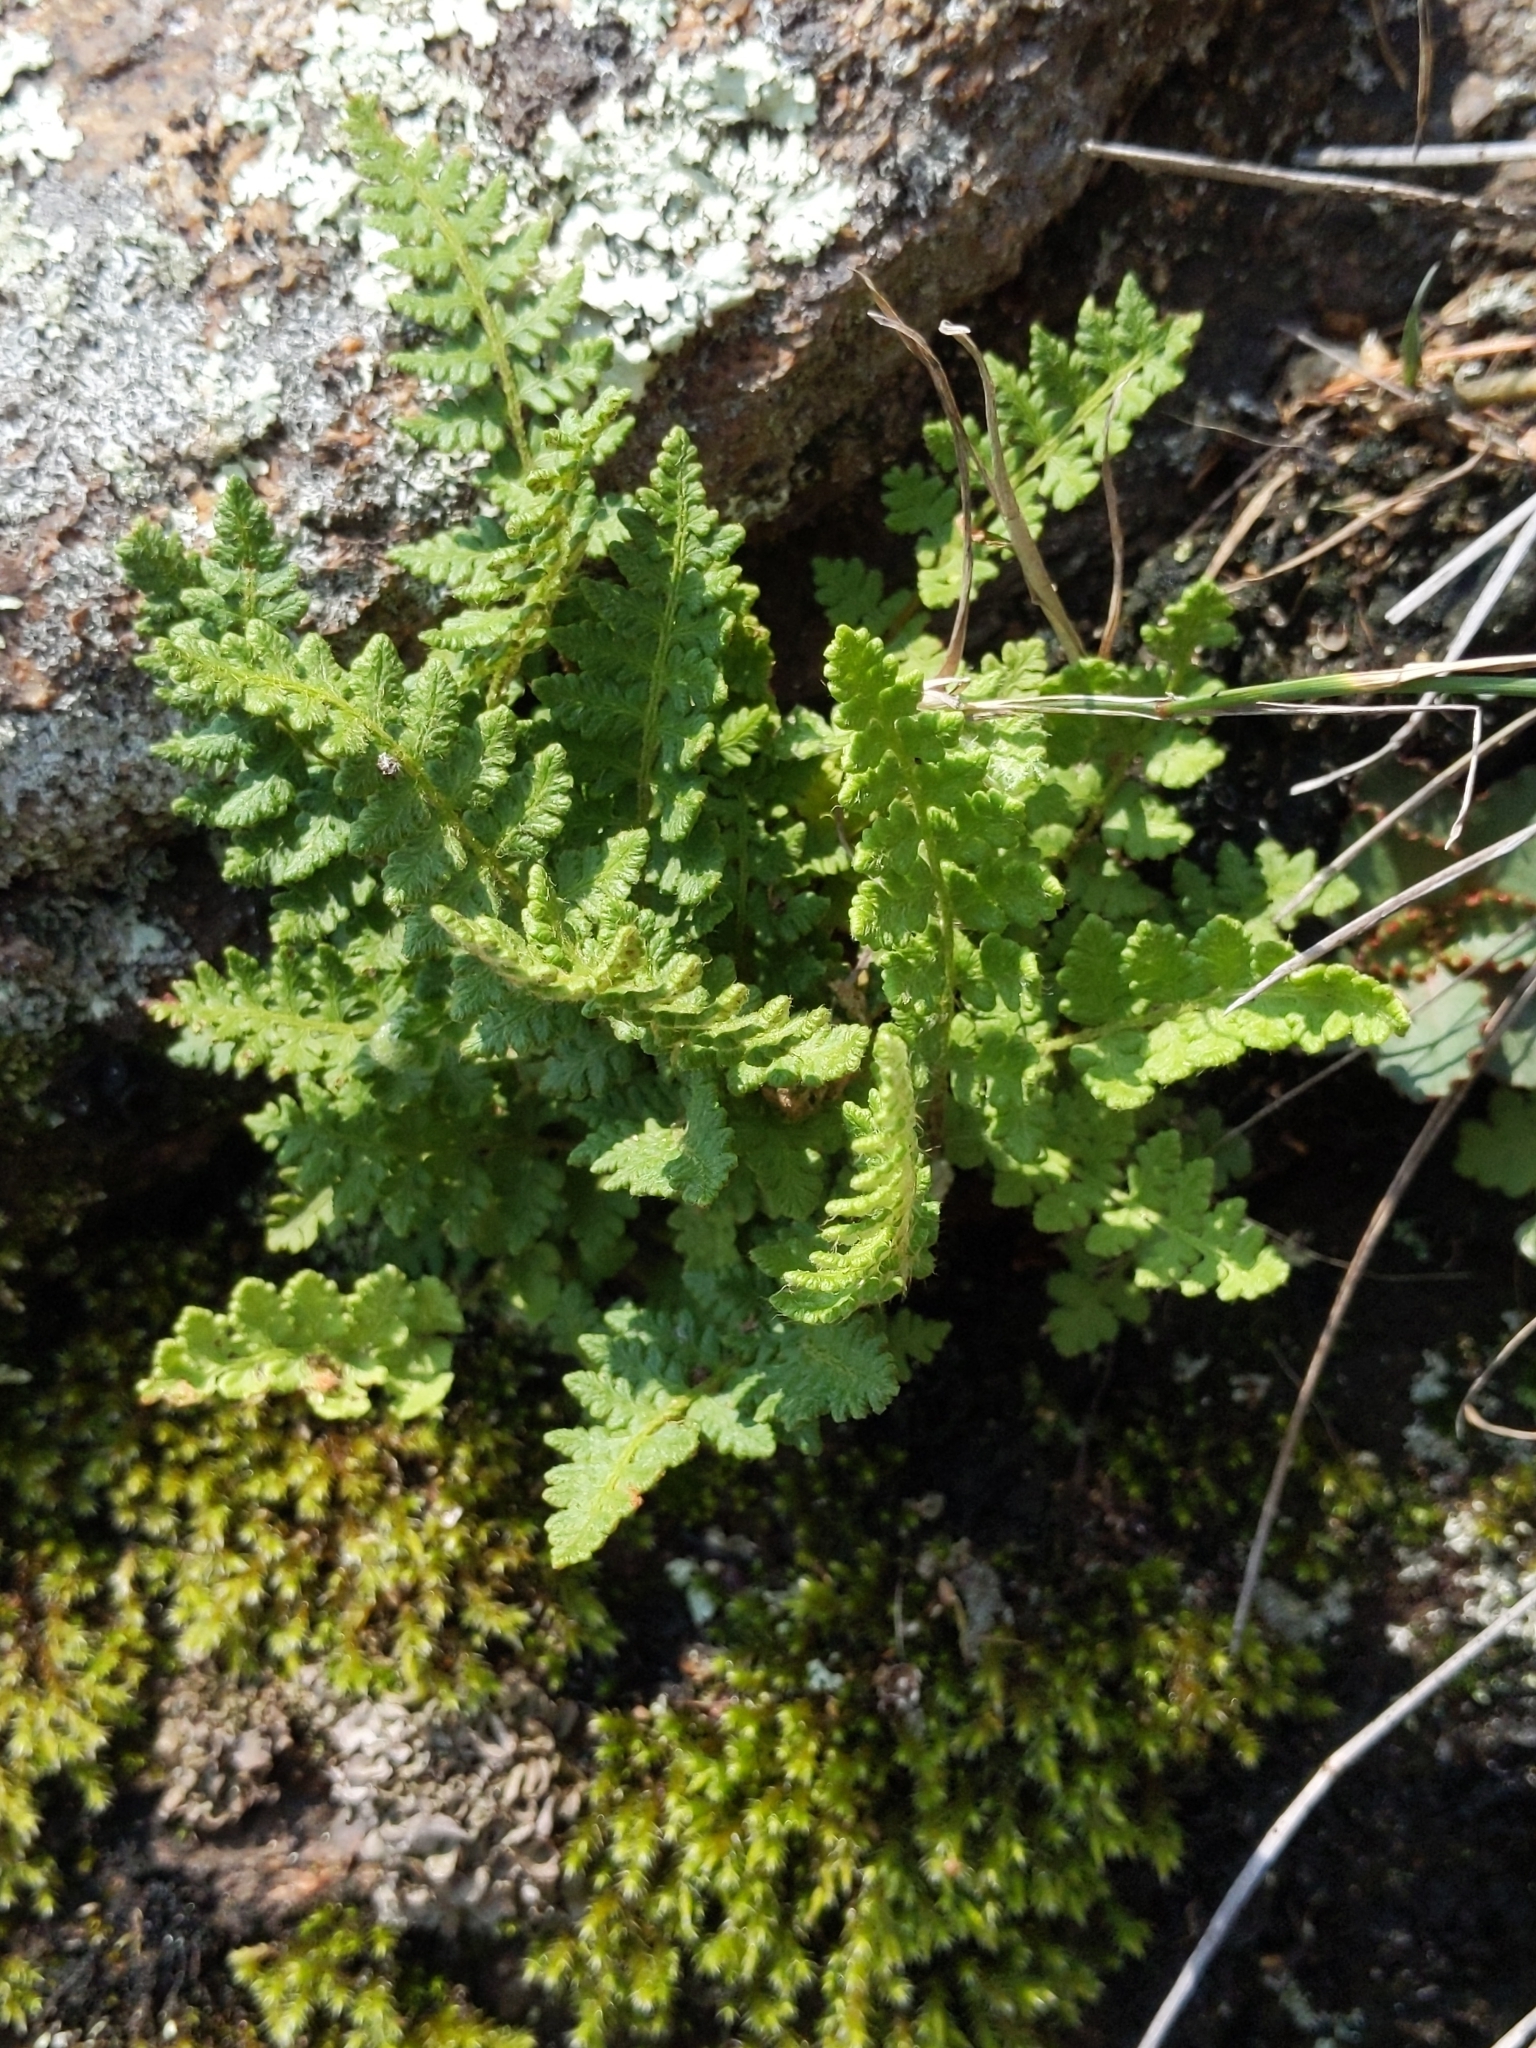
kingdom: Plantae
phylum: Tracheophyta
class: Polypodiopsida
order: Polypodiales
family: Woodsiaceae
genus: Woodsia
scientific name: Woodsia ilvensis
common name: Fragrant woodsia
